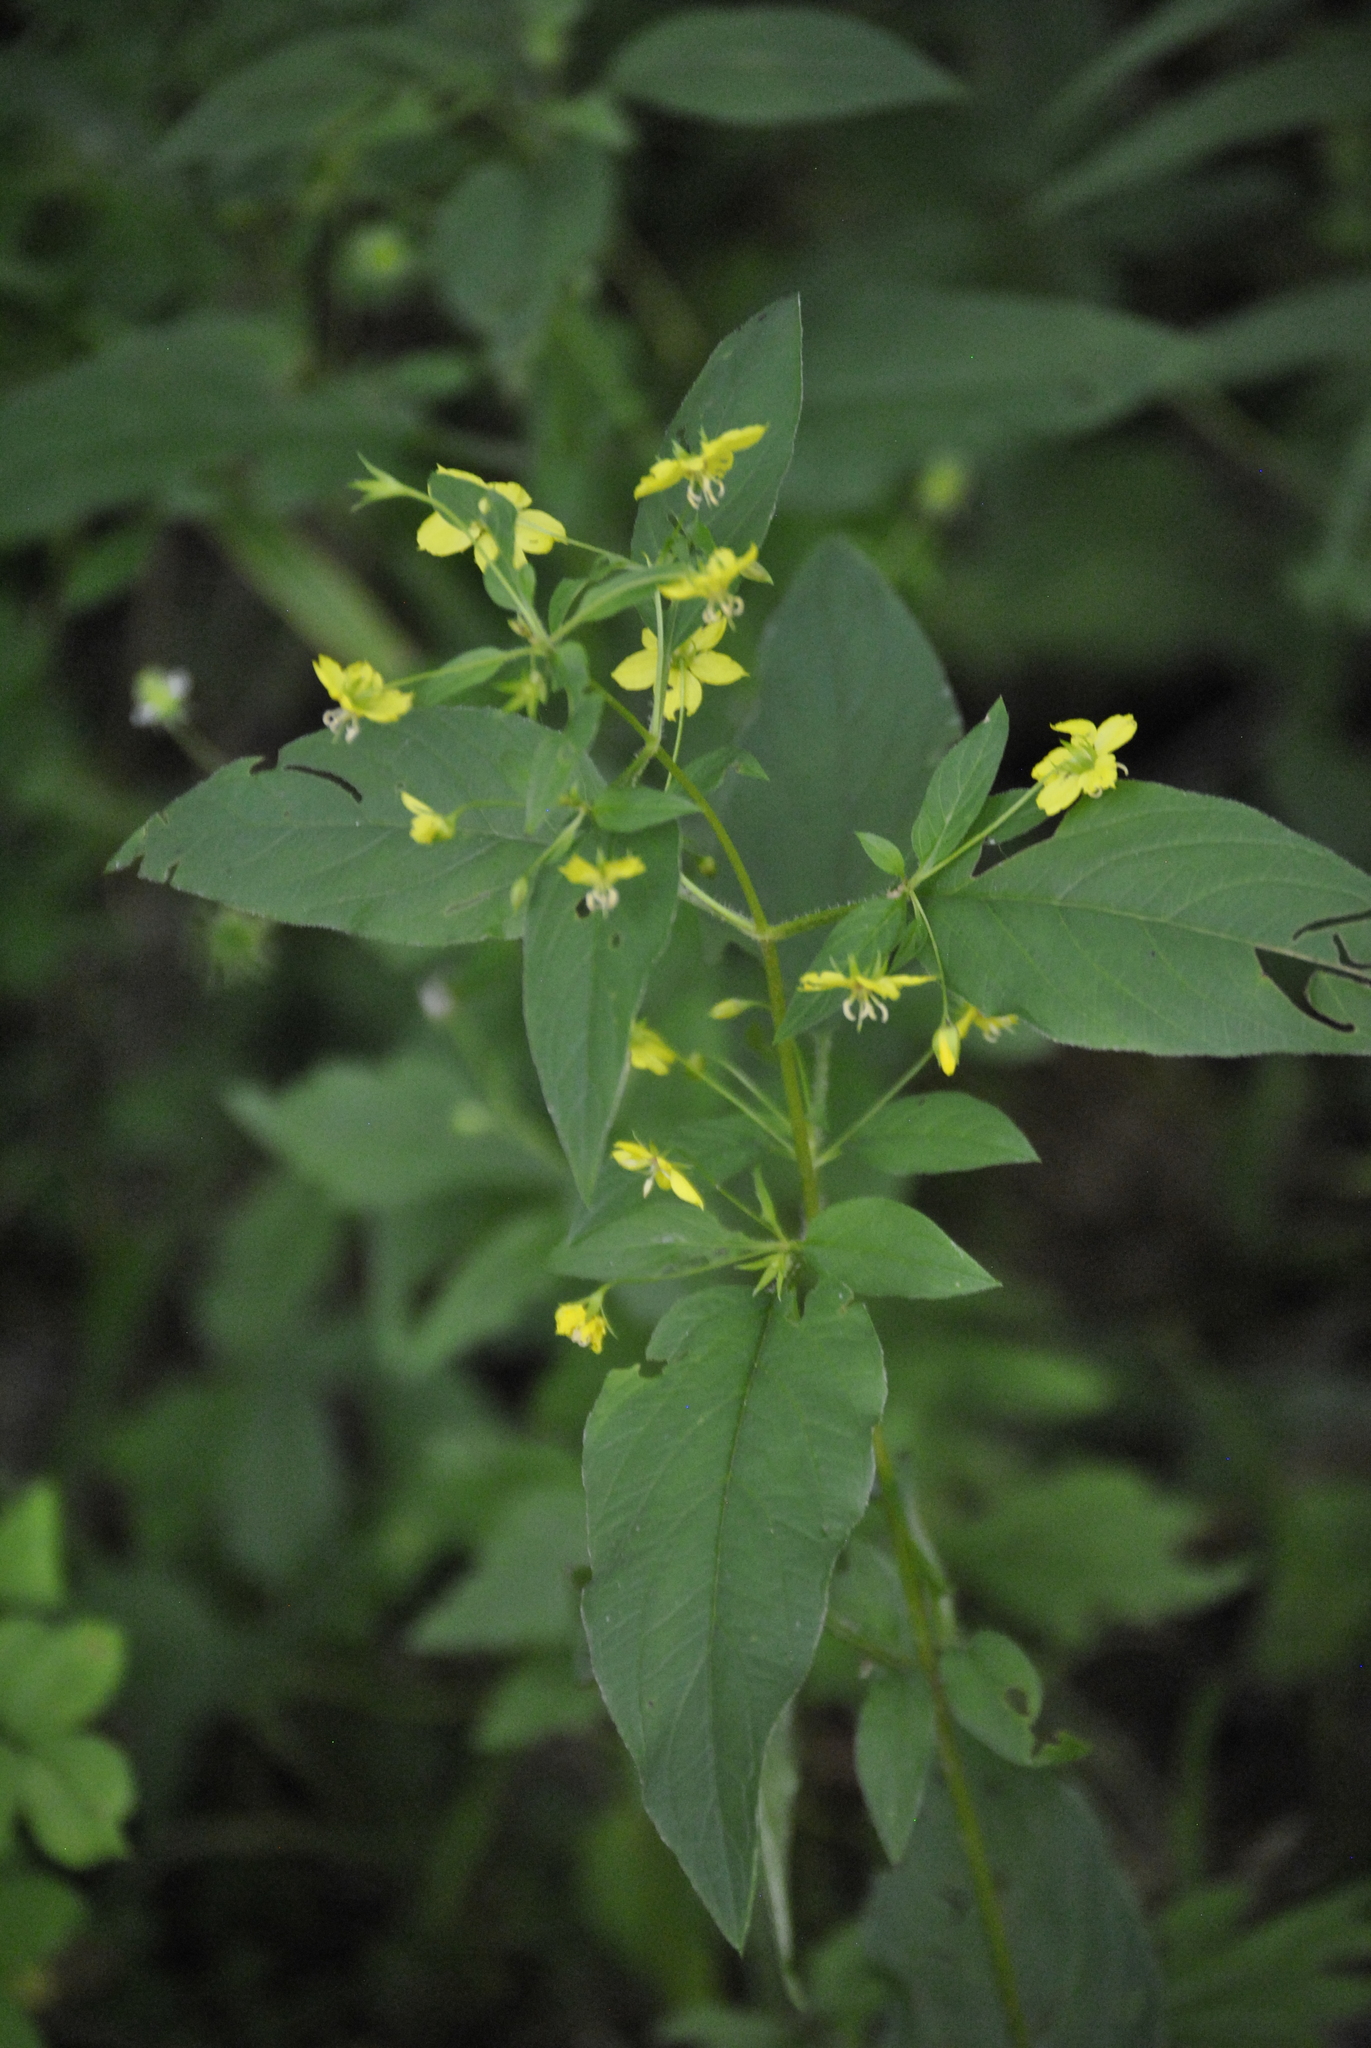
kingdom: Plantae
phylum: Tracheophyta
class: Magnoliopsida
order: Ericales
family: Primulaceae
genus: Lysimachia
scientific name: Lysimachia ciliata
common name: Fringed loosestrife
